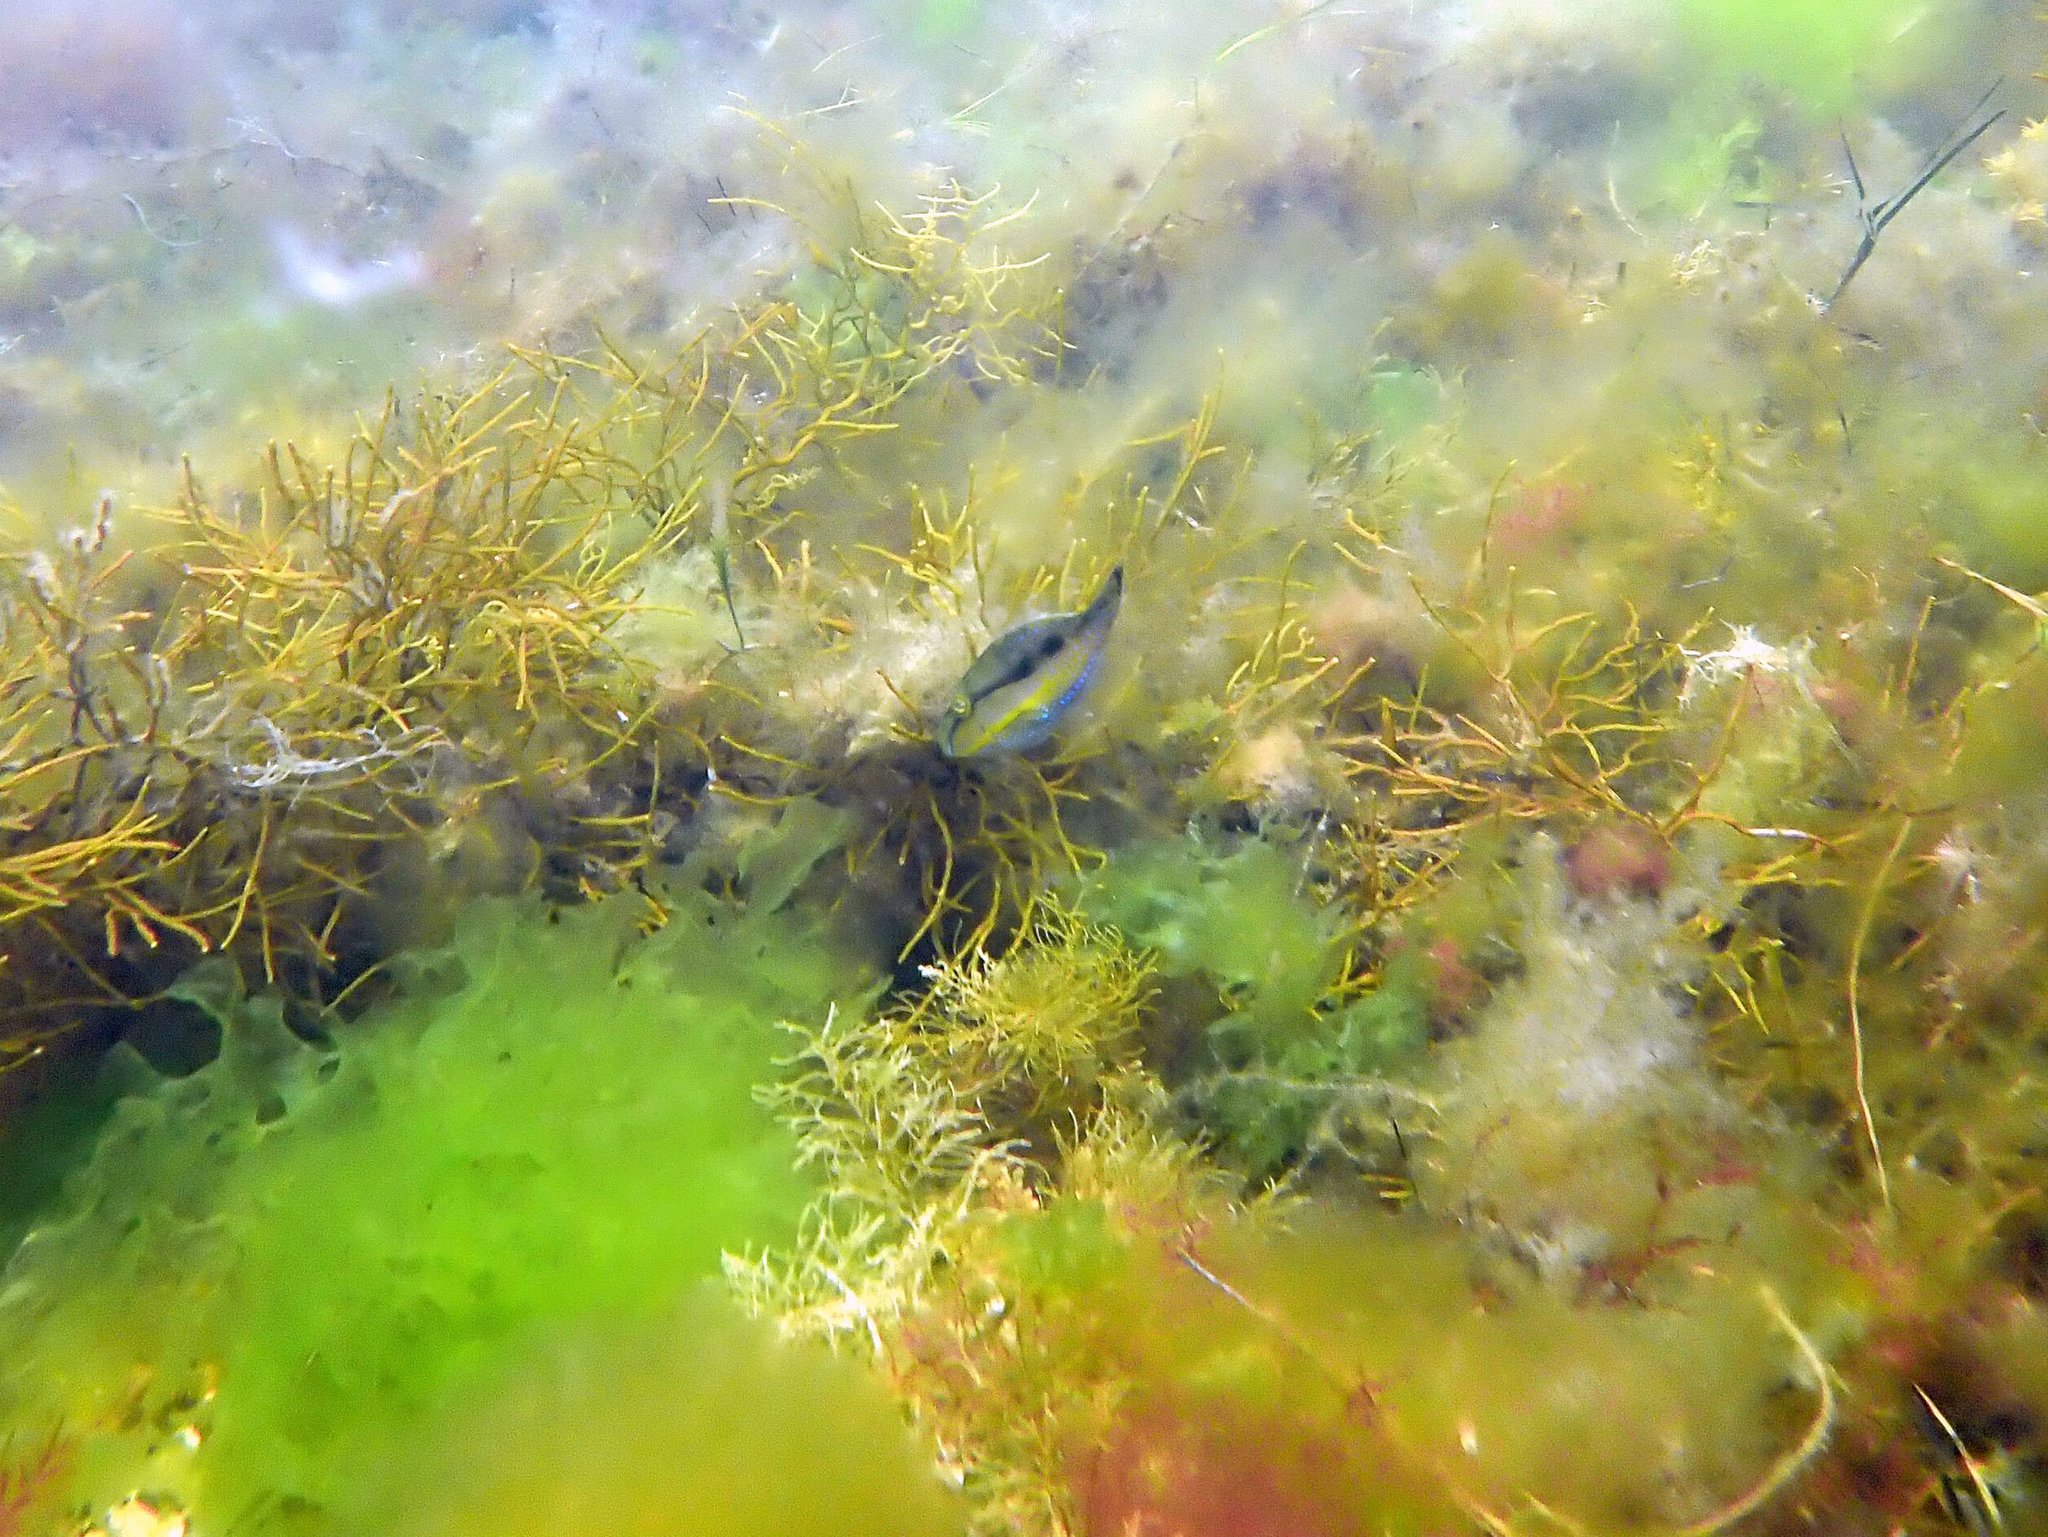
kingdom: Animalia
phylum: Chordata
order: Tetraodontiformes
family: Monacanthidae
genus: Acanthaluteres
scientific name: Acanthaluteres spilomelanurus
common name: Bridled leatherjacket
